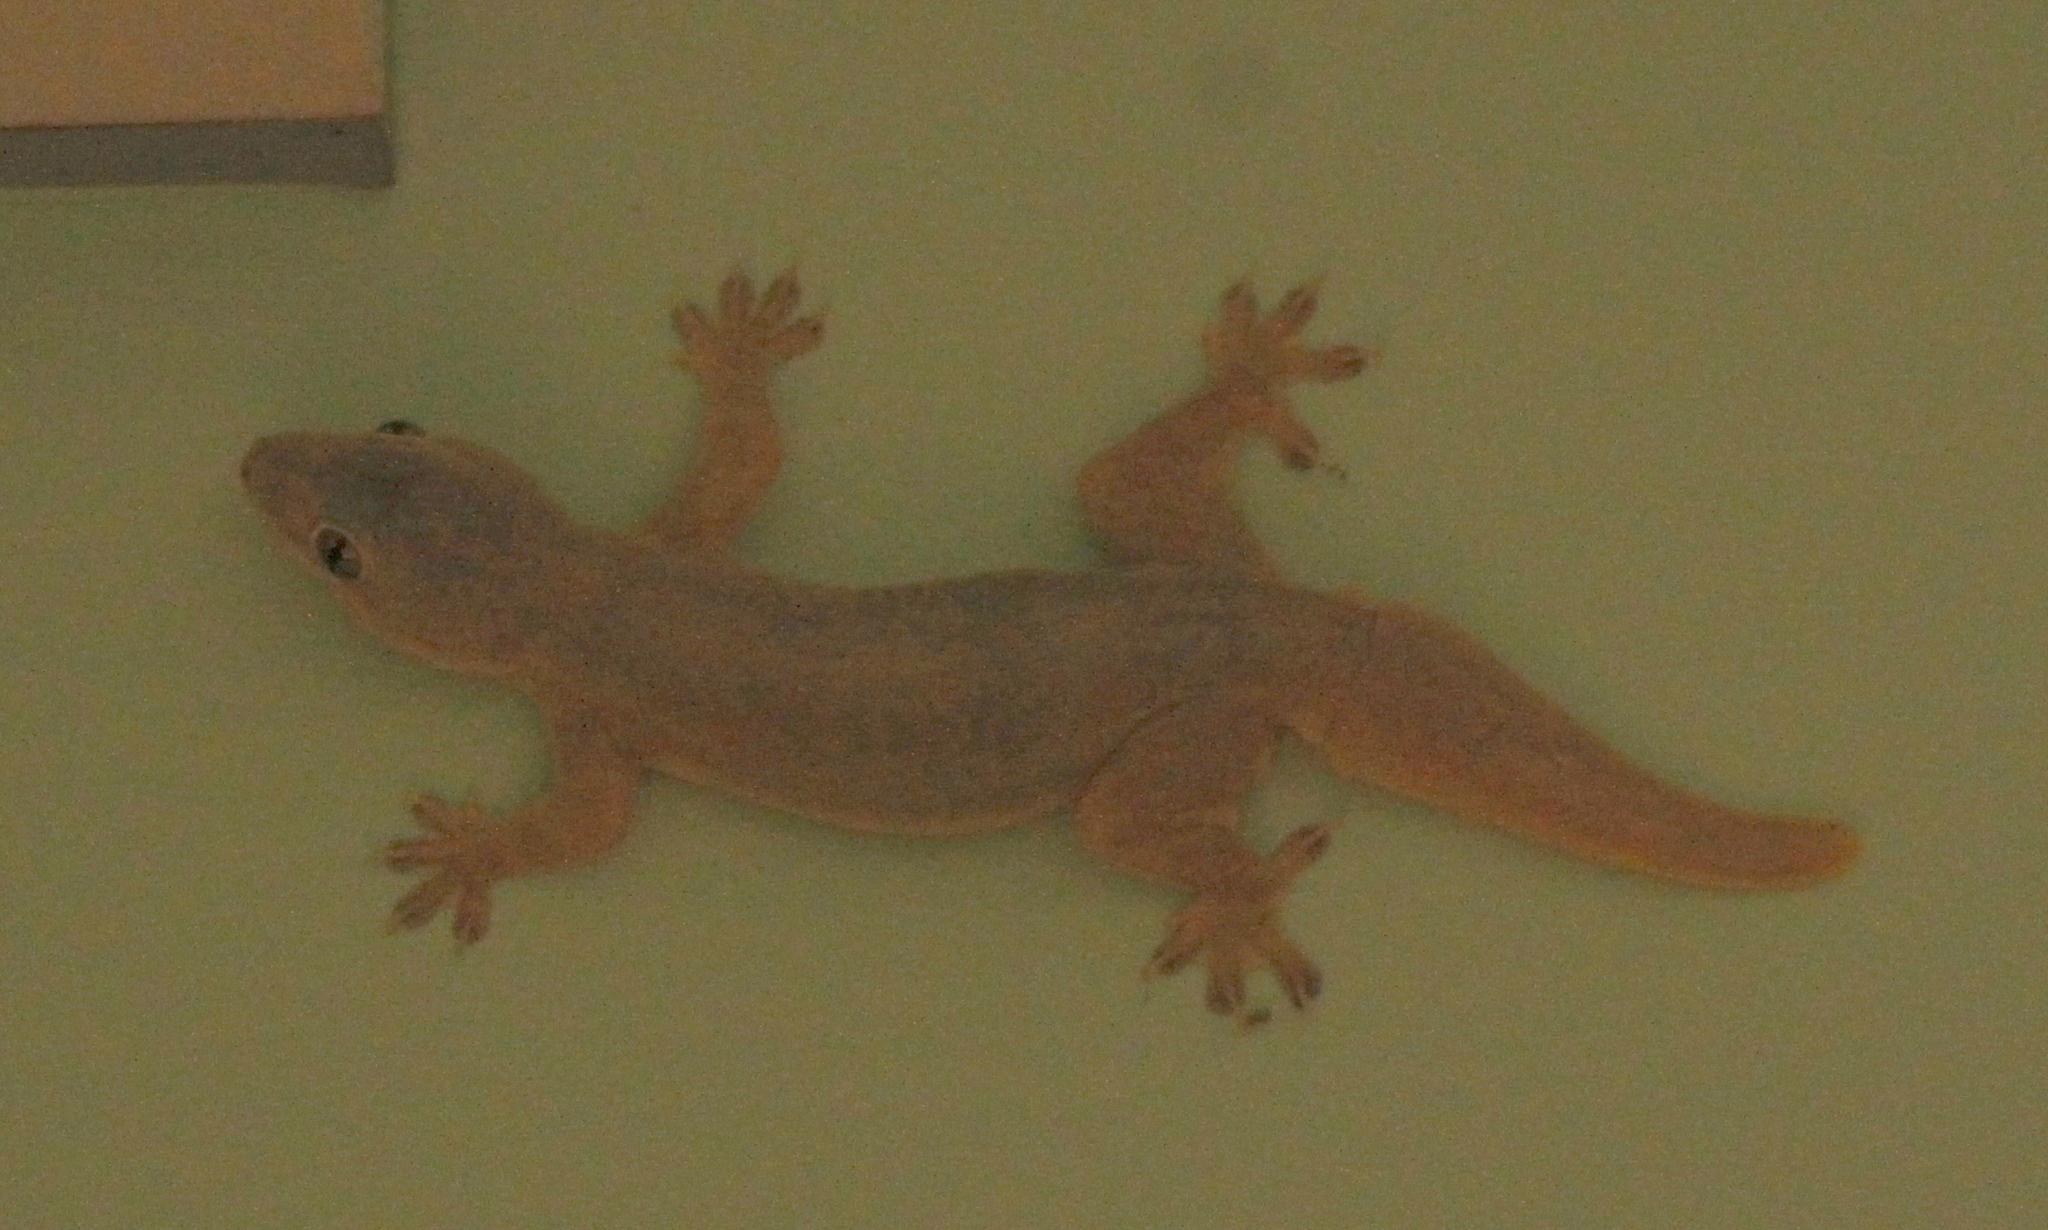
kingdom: Animalia
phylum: Chordata
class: Squamata
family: Gekkonidae
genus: Hemidactylus
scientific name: Hemidactylus platyurus
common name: Flat-tailed house gecko
